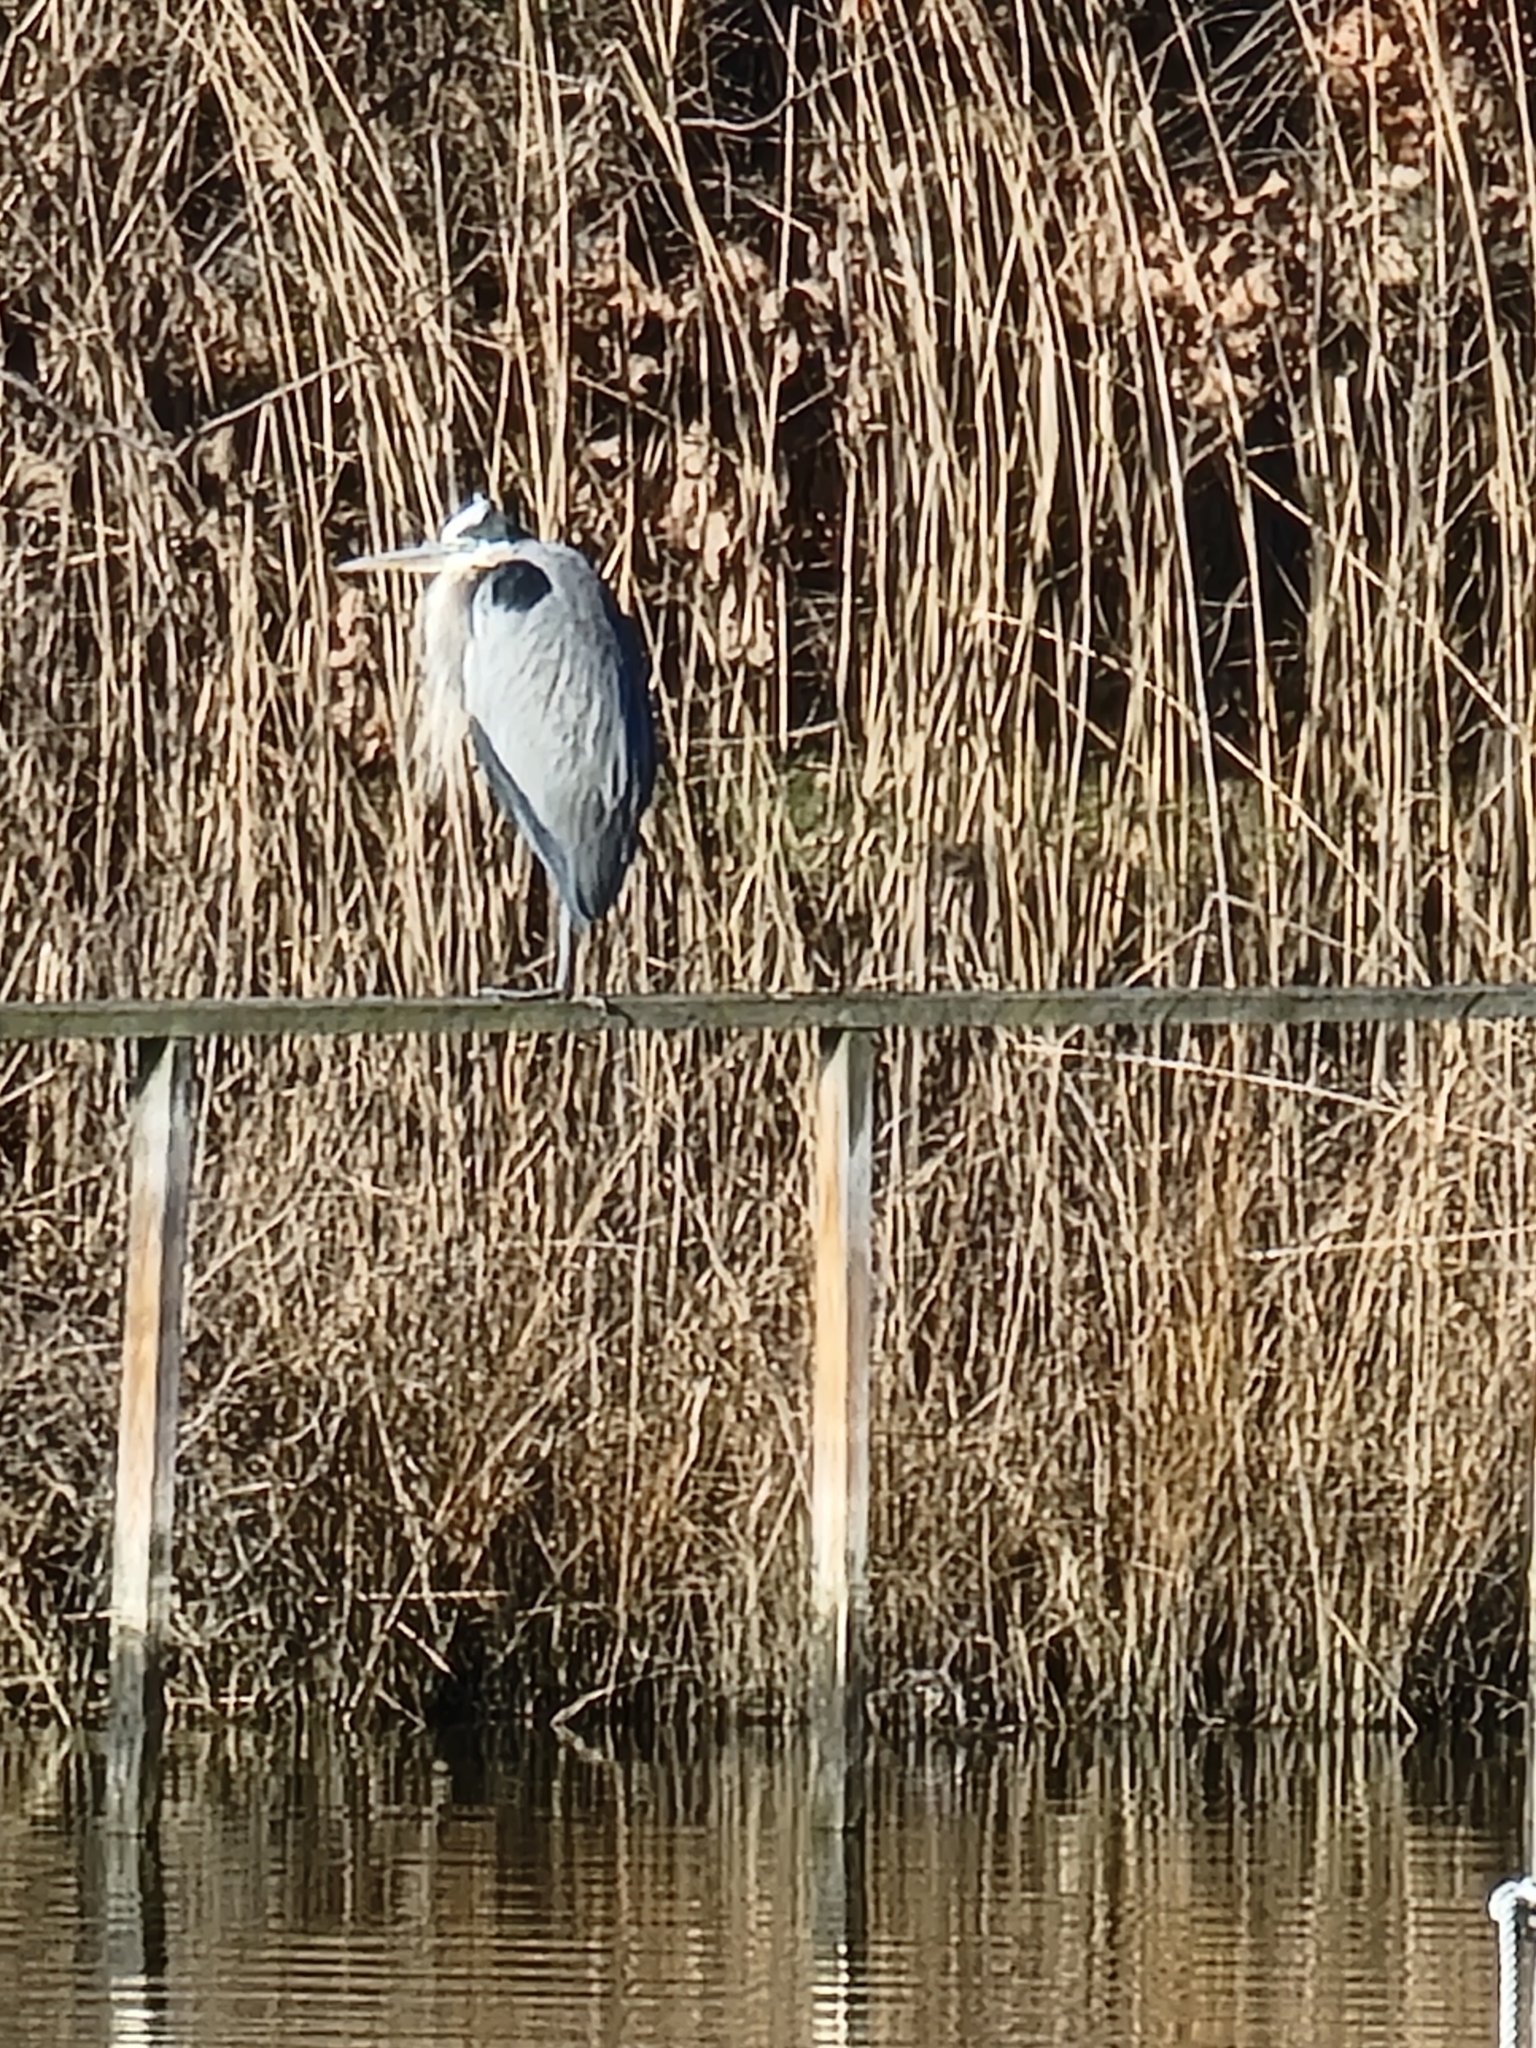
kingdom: Animalia
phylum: Chordata
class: Aves
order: Pelecaniformes
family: Ardeidae
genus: Ardea
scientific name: Ardea herodias
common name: Great blue heron
